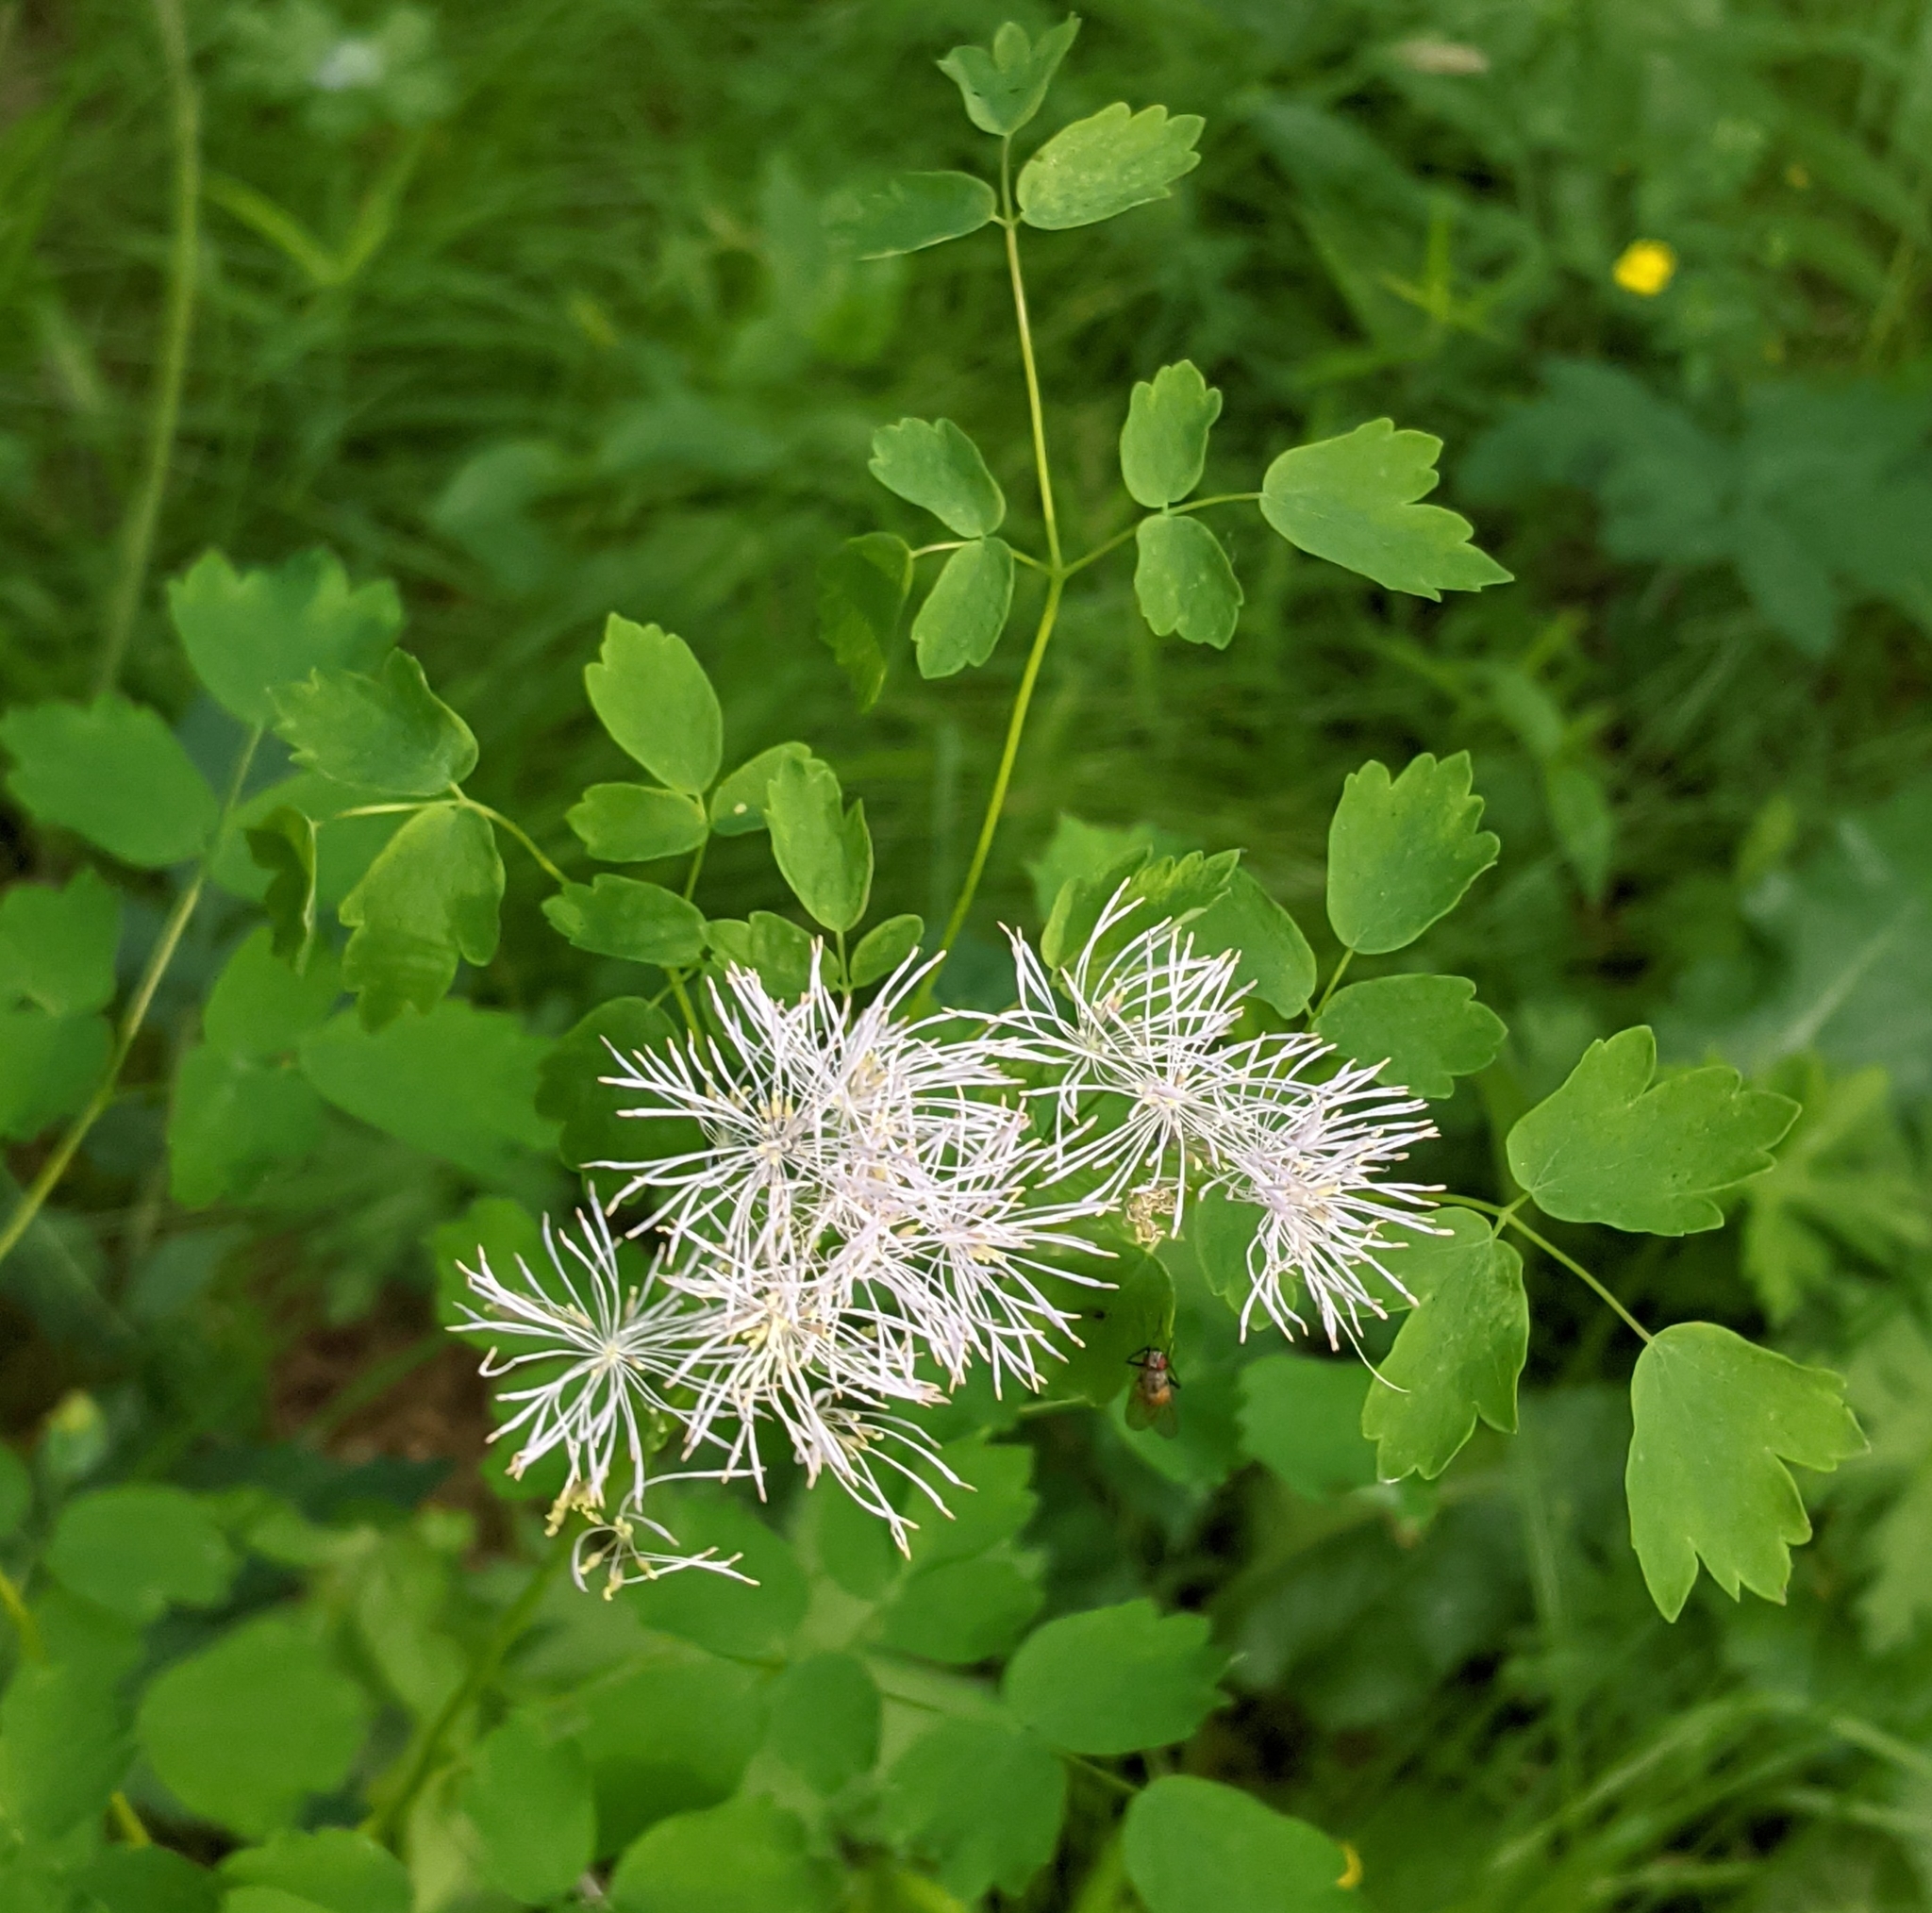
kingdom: Plantae
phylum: Tracheophyta
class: Magnoliopsida
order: Ranunculales
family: Ranunculaceae
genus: Thalictrum
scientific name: Thalictrum aquilegiifolium
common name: French meadow-rue
